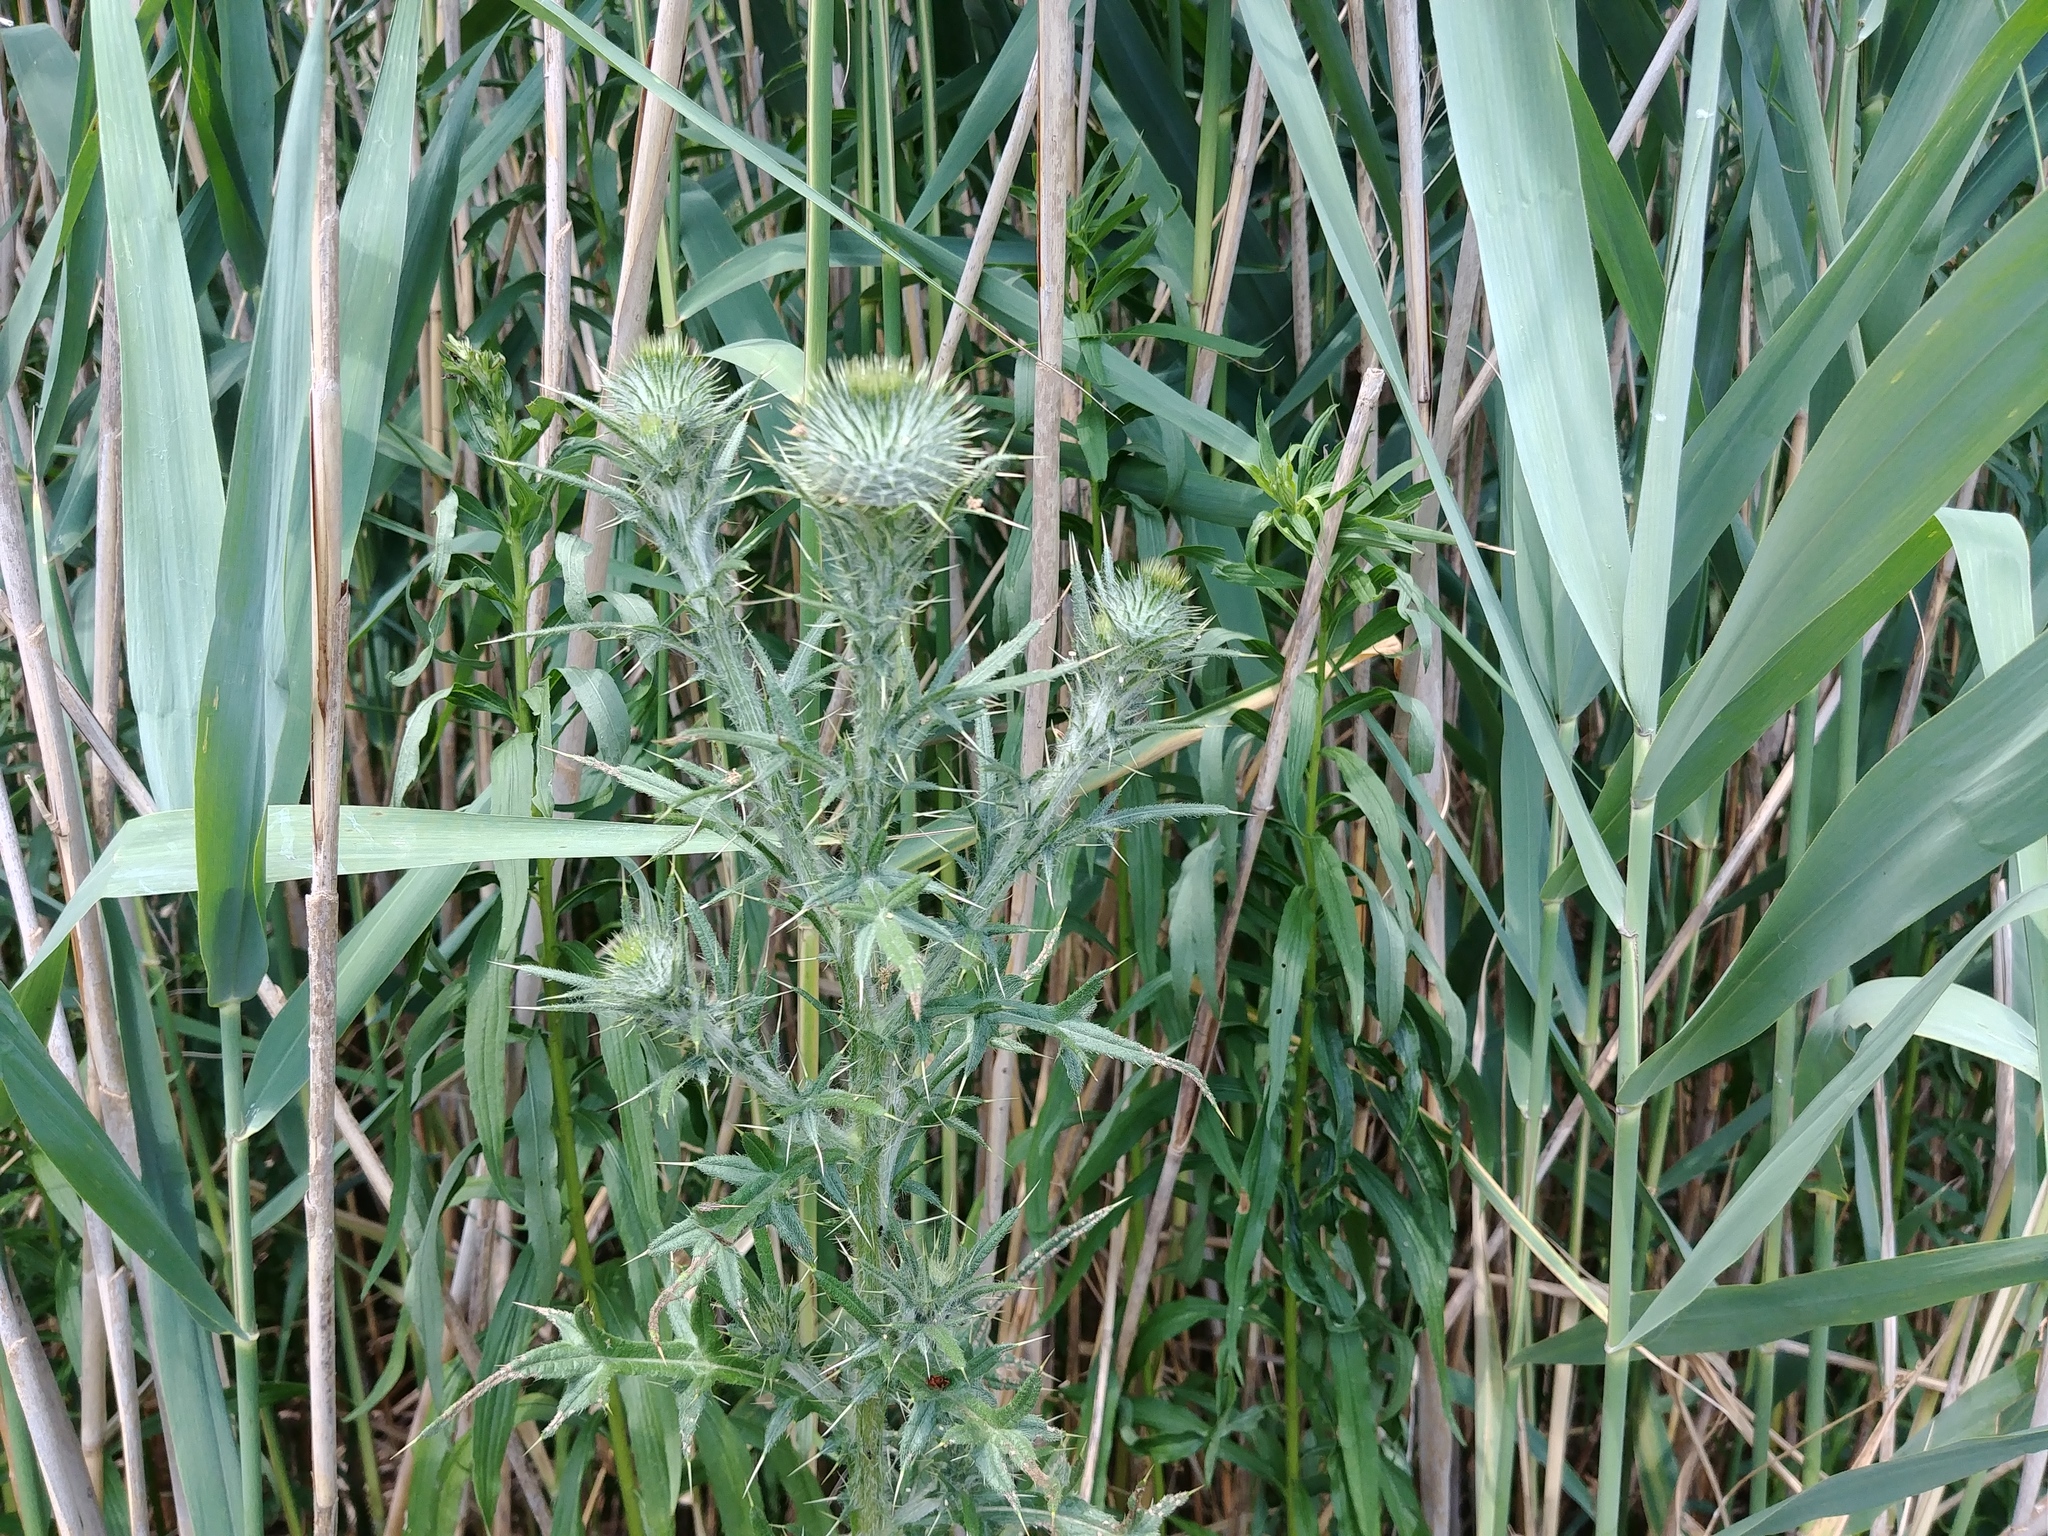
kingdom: Plantae
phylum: Tracheophyta
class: Magnoliopsida
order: Asterales
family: Asteraceae
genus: Cirsium
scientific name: Cirsium vulgare
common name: Bull thistle
